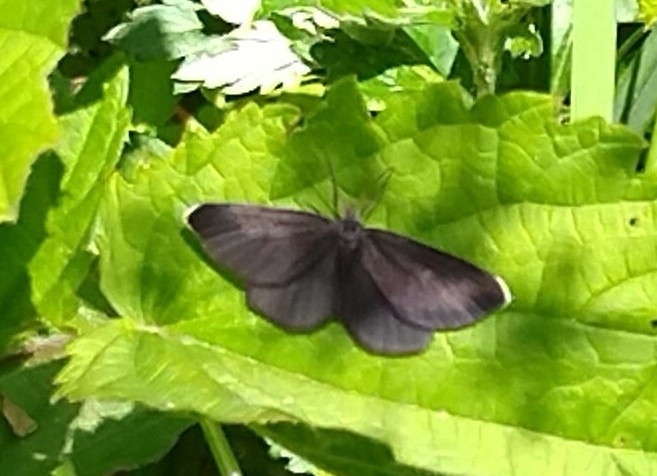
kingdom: Animalia
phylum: Arthropoda
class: Insecta
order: Lepidoptera
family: Geometridae
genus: Odezia
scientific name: Odezia atrata
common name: Chimney sweeper
